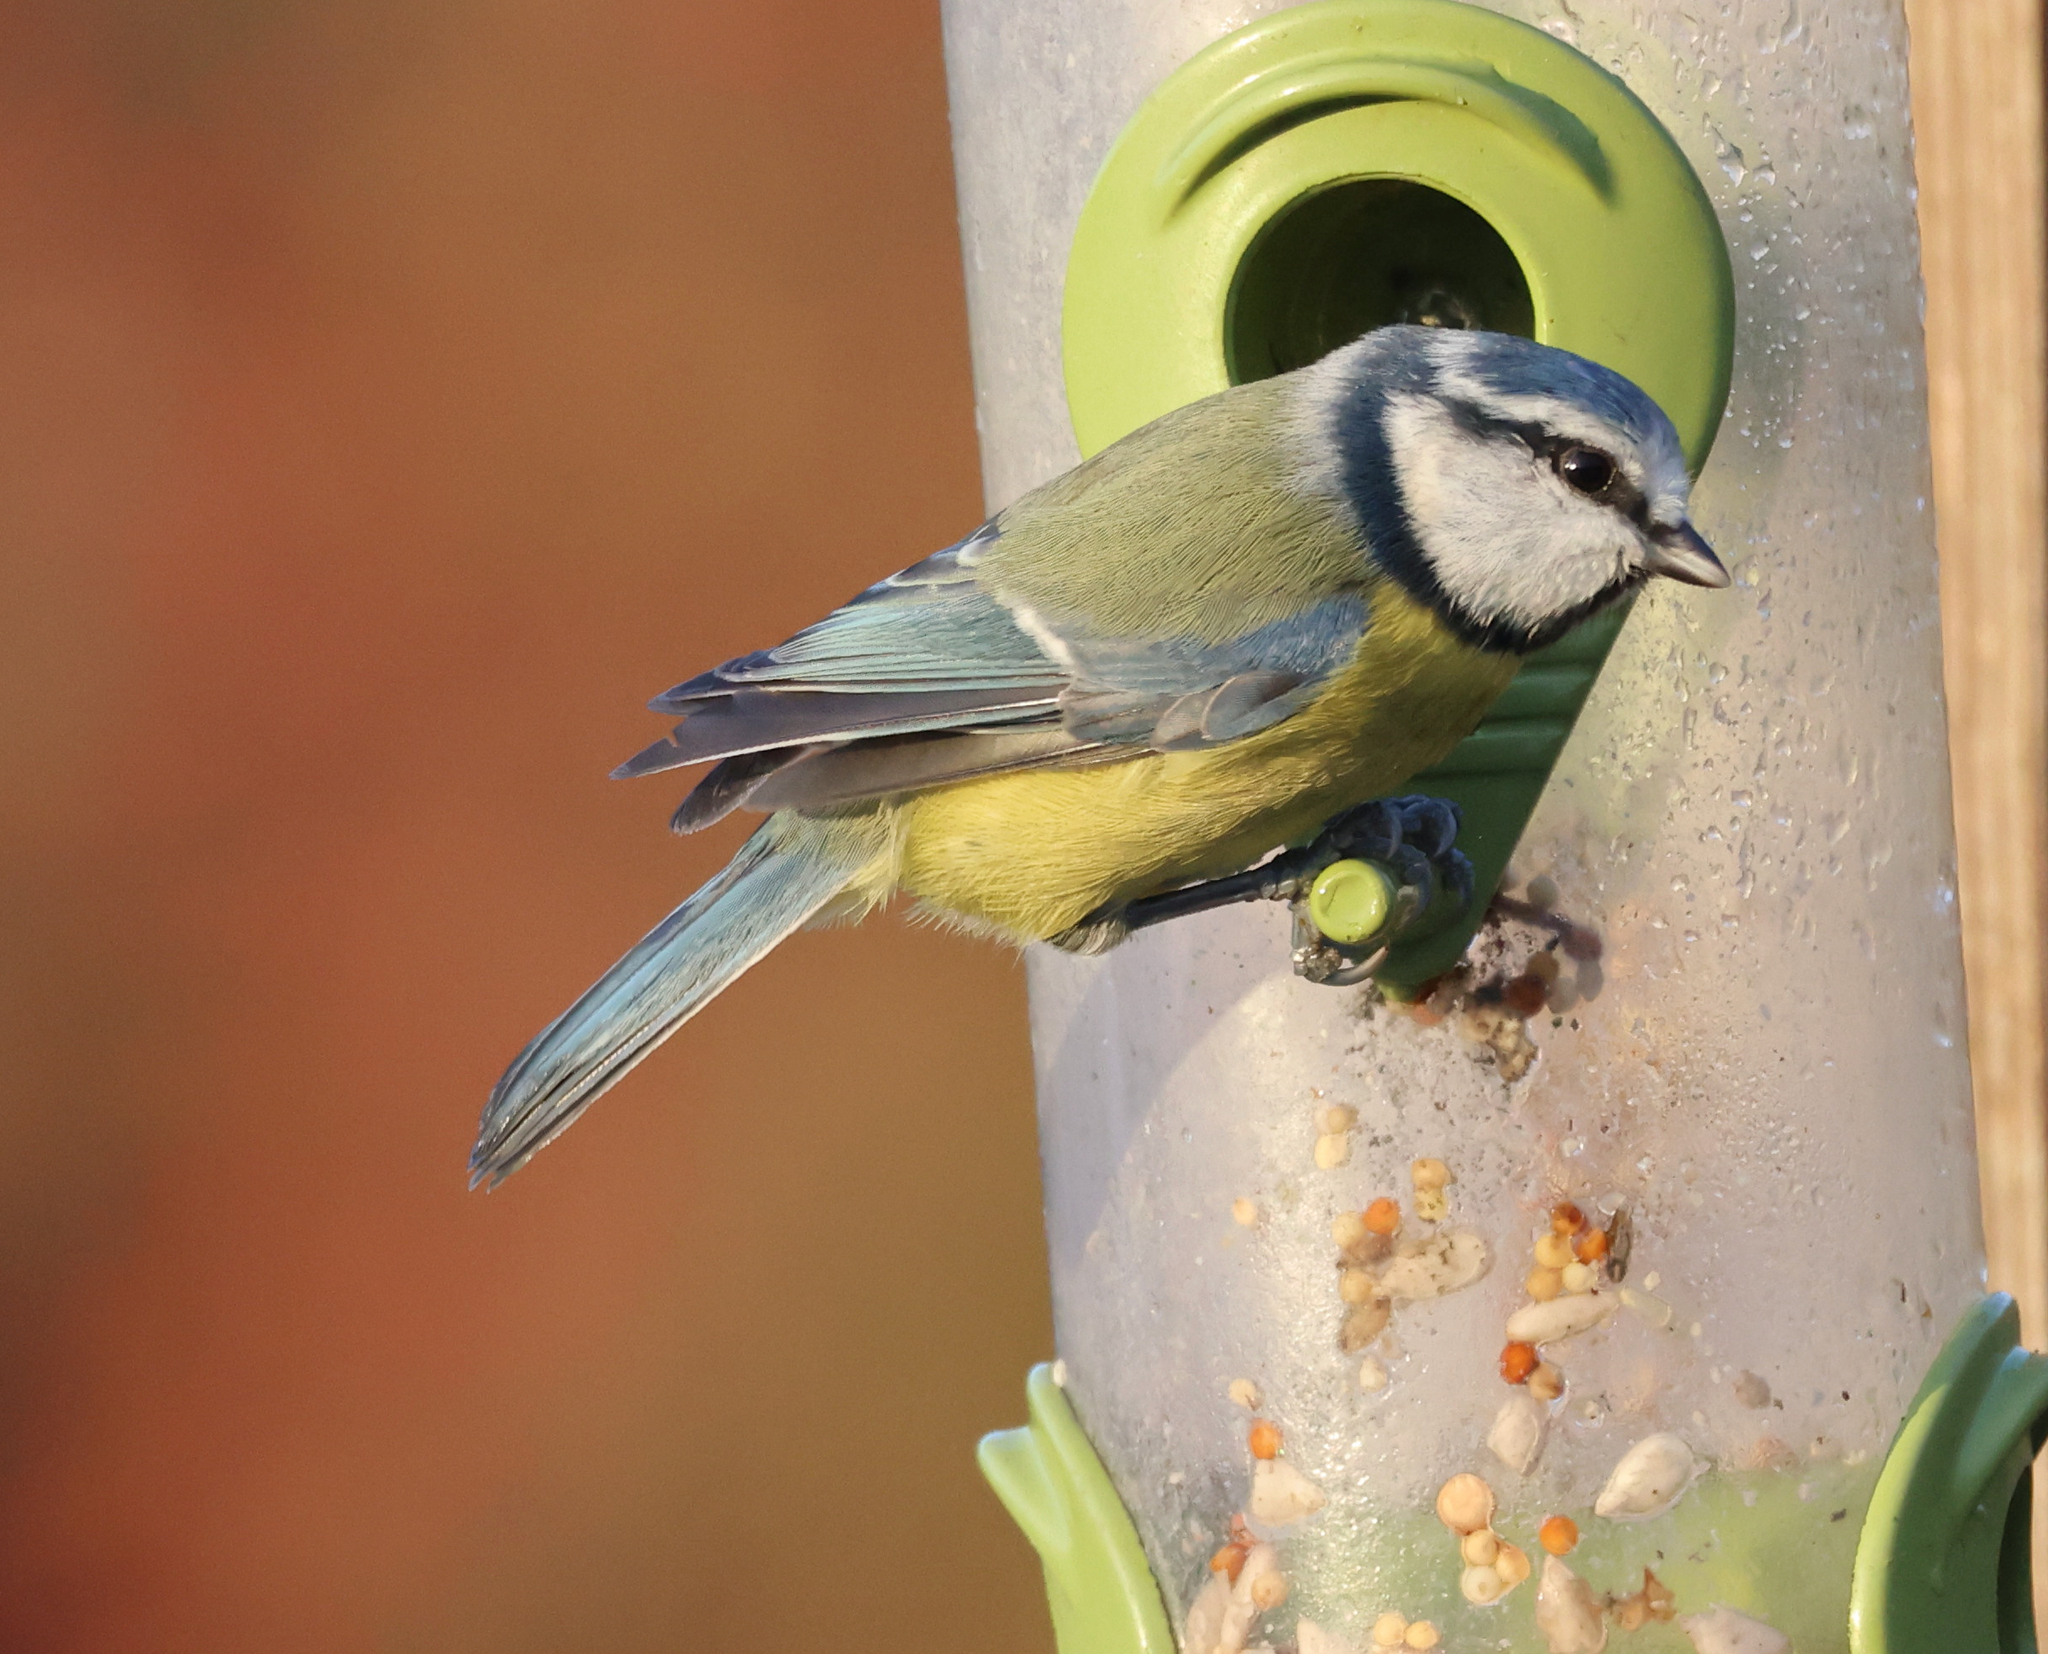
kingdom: Animalia
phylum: Chordata
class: Aves
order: Passeriformes
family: Paridae
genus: Cyanistes
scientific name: Cyanistes caeruleus
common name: Eurasian blue tit
